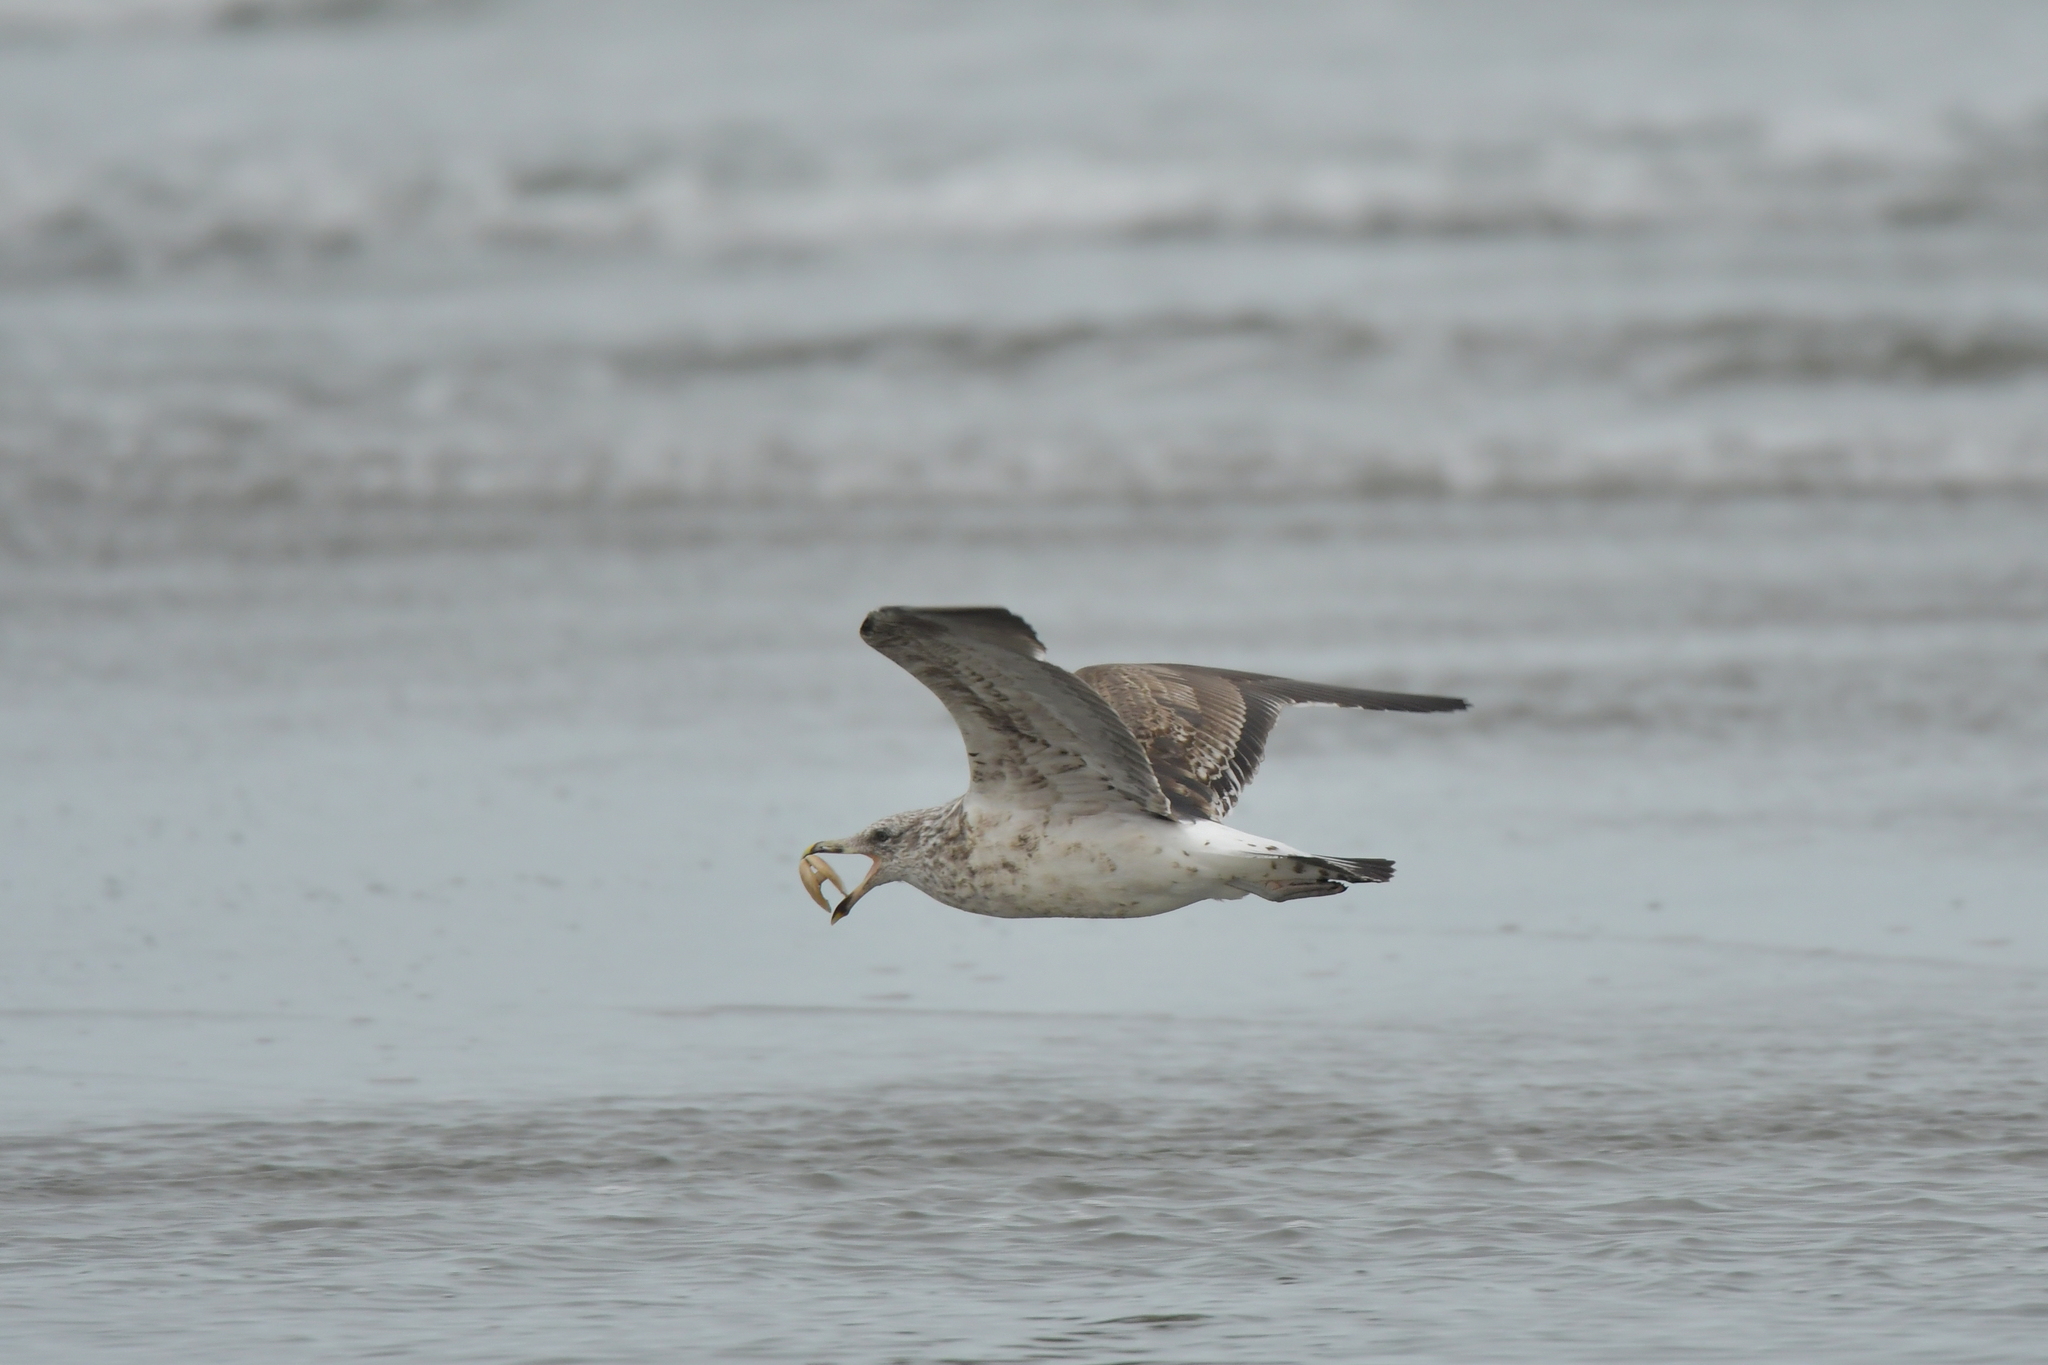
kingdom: Animalia
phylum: Chordata
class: Aves
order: Charadriiformes
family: Laridae
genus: Larus
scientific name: Larus dominicanus
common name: Kelp gull
